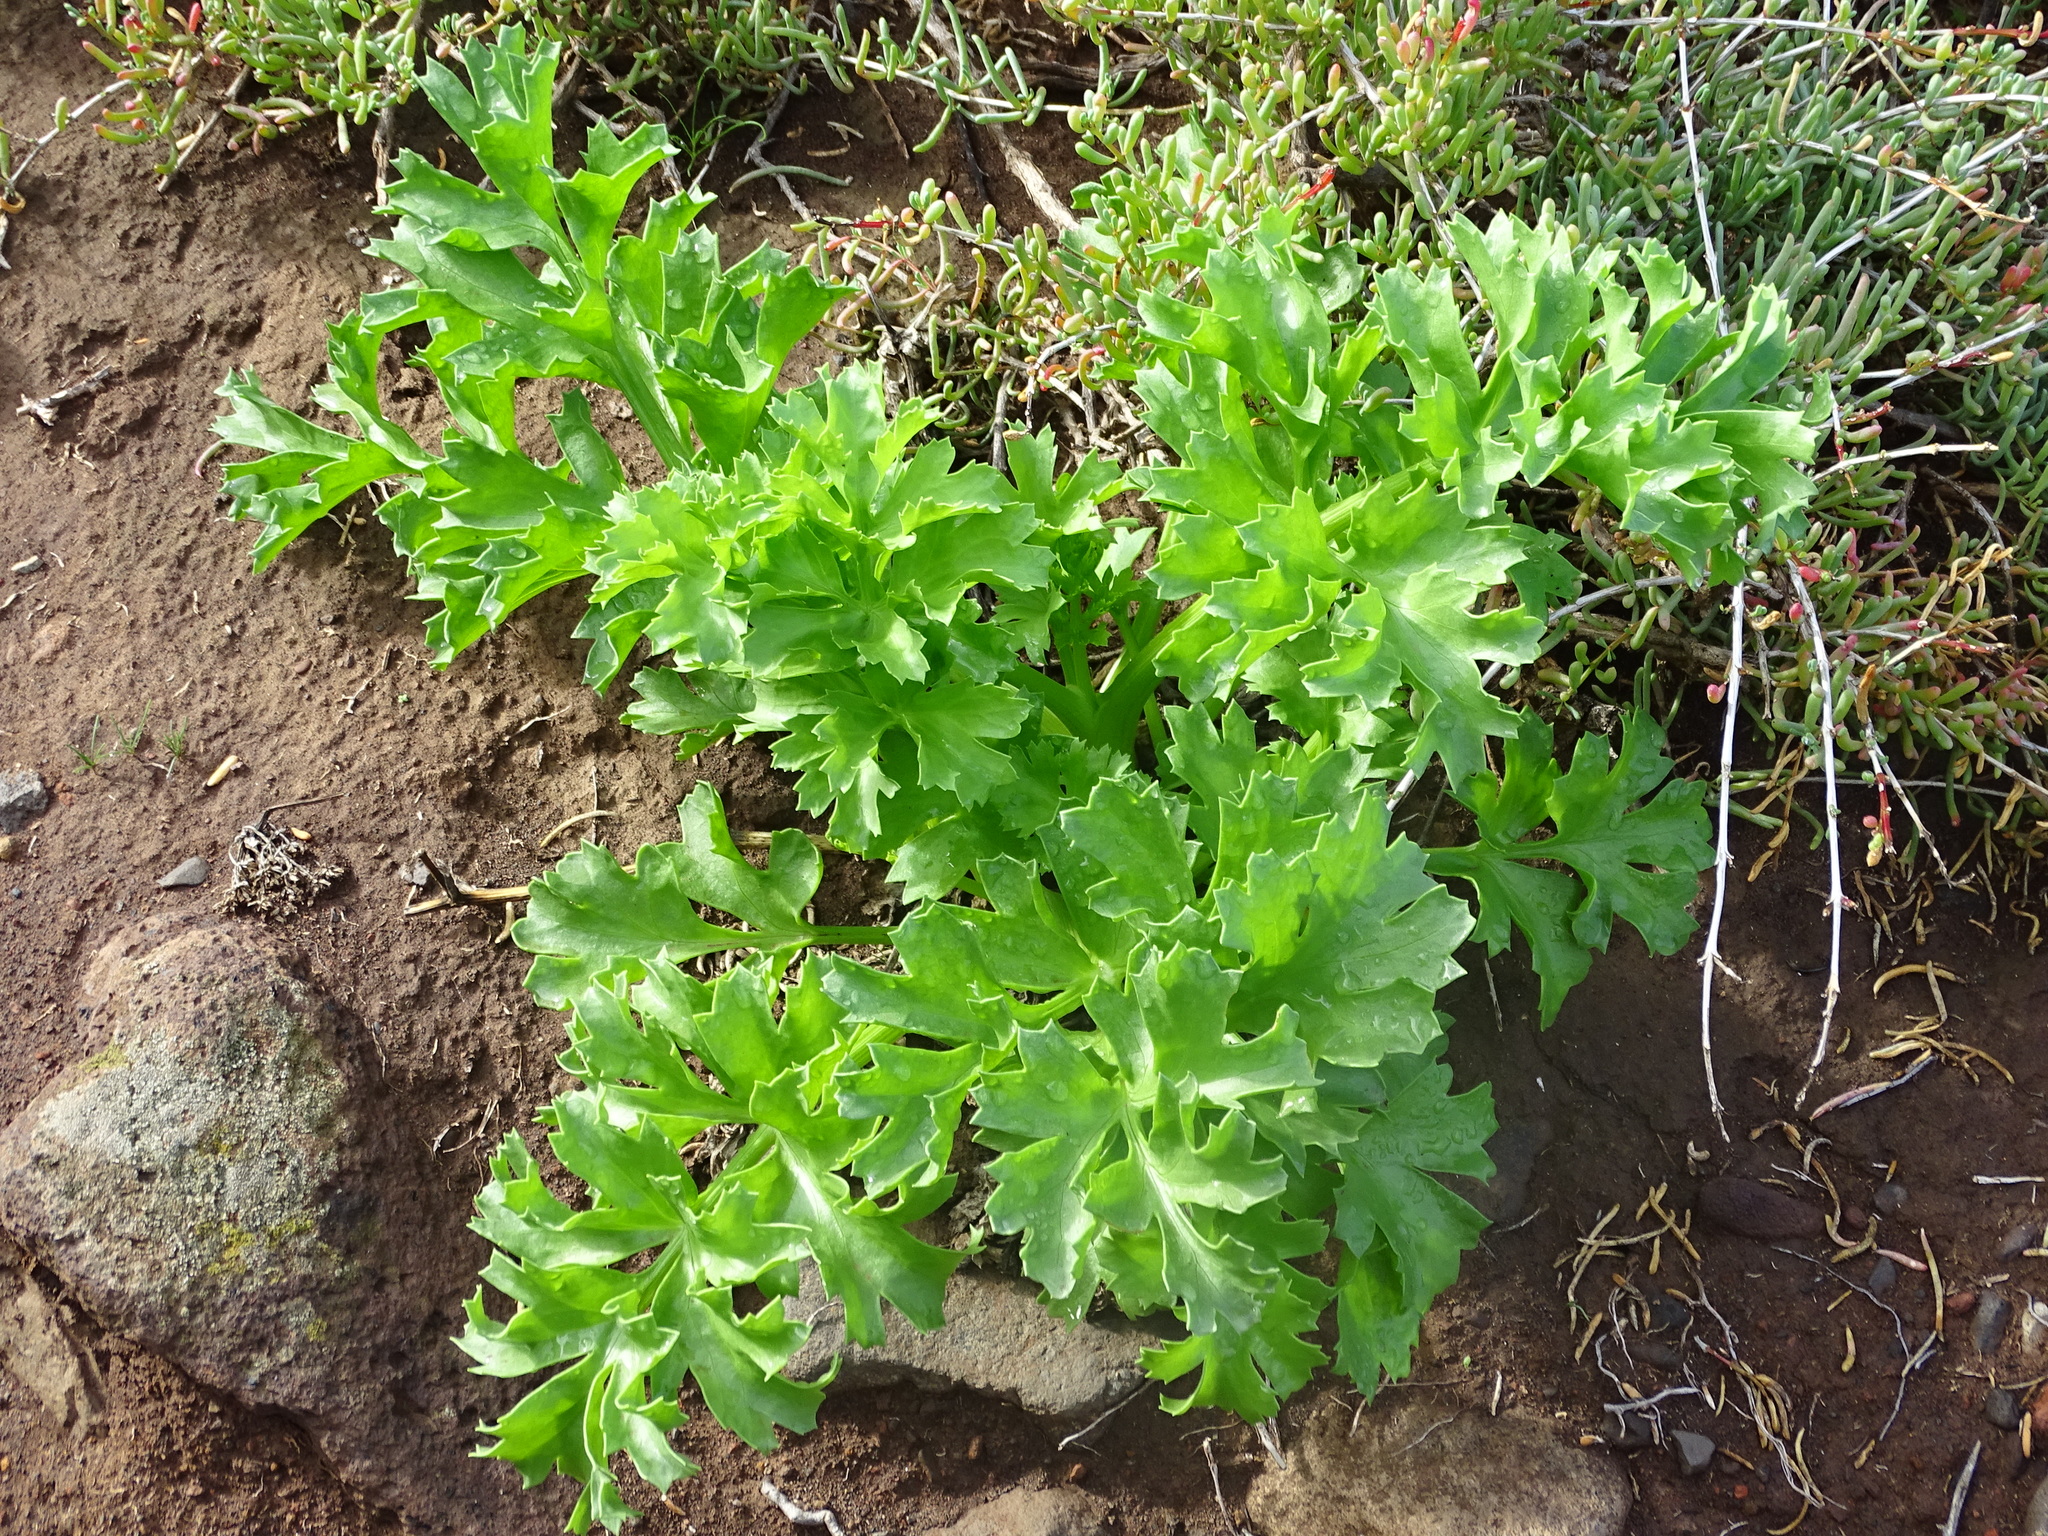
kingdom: Plantae
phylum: Tracheophyta
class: Magnoliopsida
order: Apiales
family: Apiaceae
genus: Astydamia
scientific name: Astydamia latifolia
